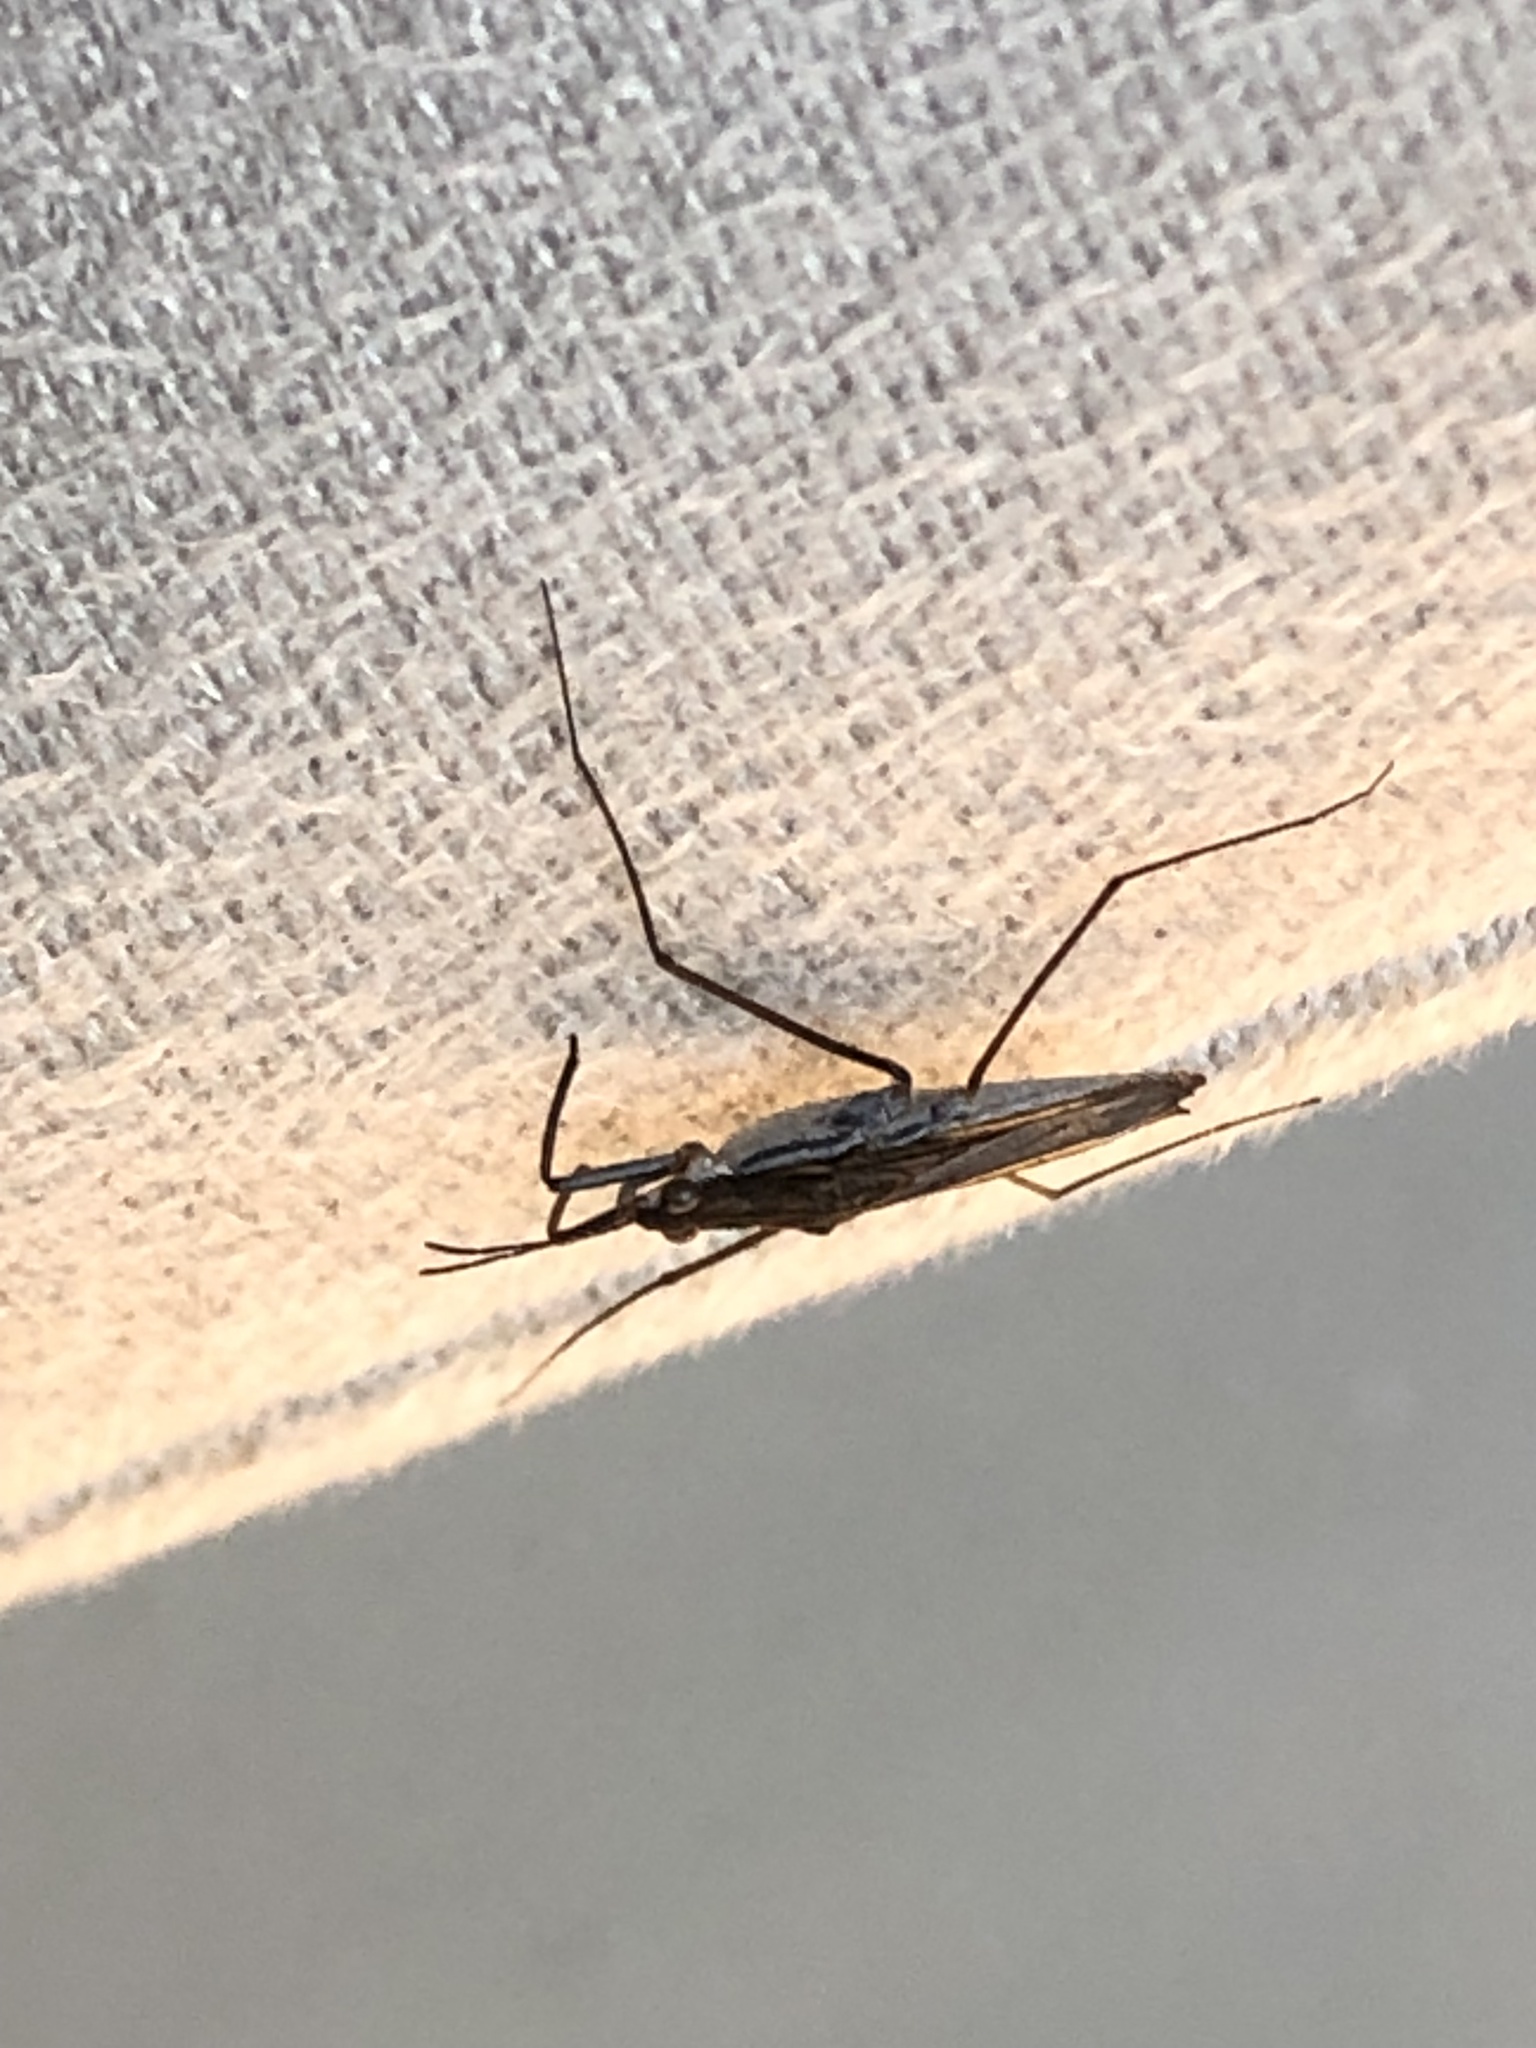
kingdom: Animalia
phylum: Arthropoda
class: Insecta
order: Hemiptera
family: Gerridae
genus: Gerris
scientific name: Gerris
